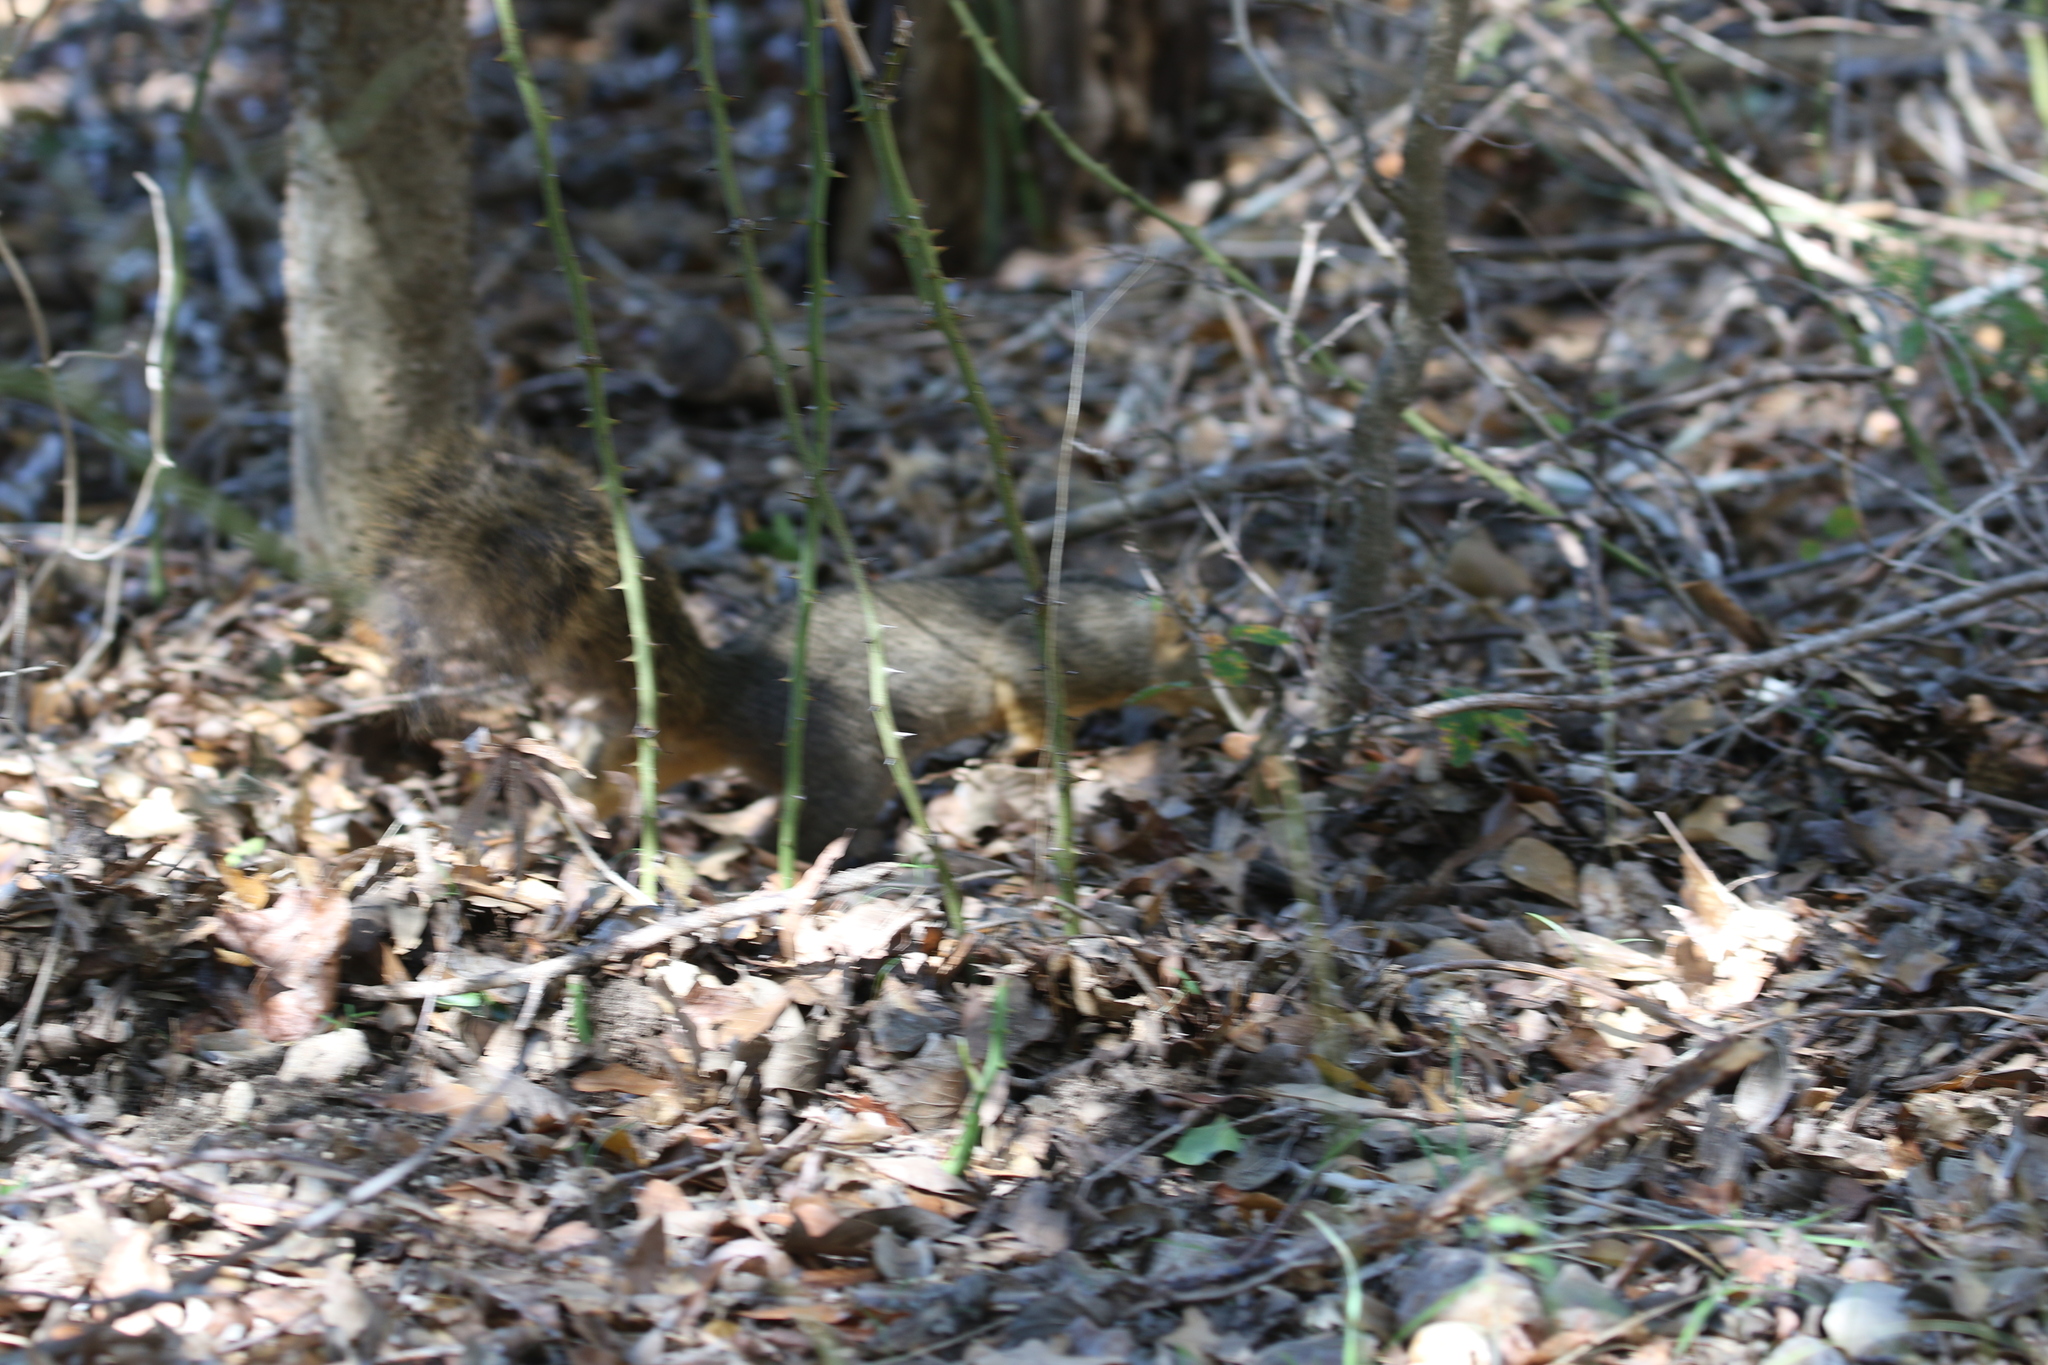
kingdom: Animalia
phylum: Chordata
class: Mammalia
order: Rodentia
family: Sciuridae
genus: Sciurus
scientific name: Sciurus niger
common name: Fox squirrel
